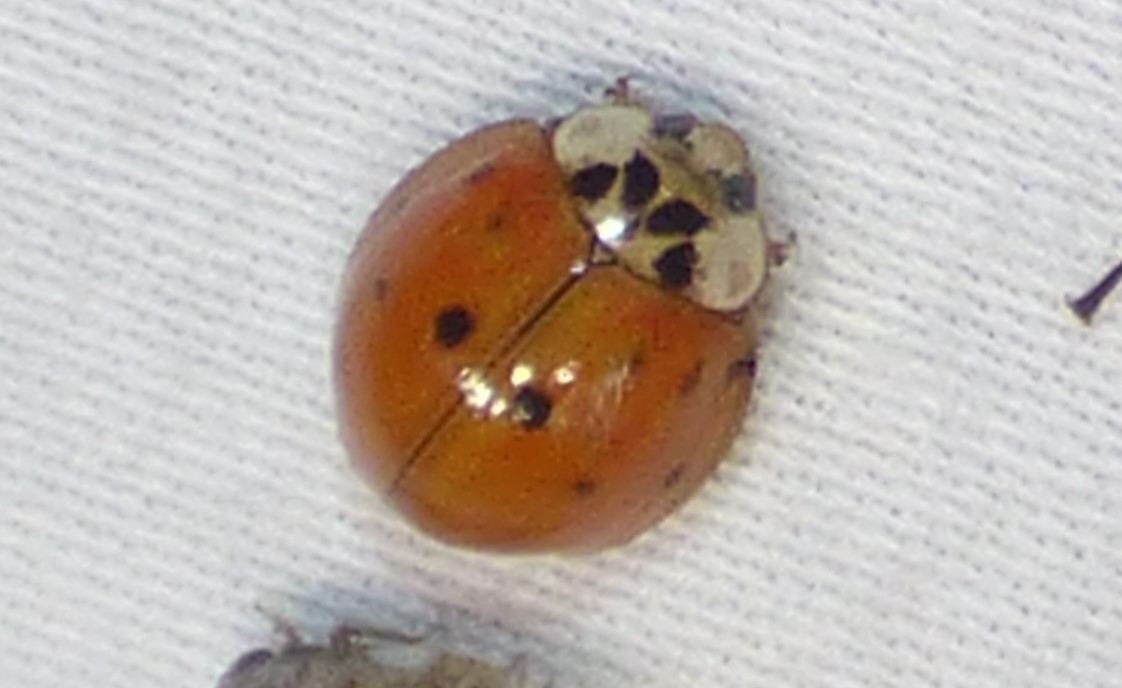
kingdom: Animalia
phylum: Arthropoda
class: Insecta
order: Coleoptera
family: Coccinellidae
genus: Harmonia
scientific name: Harmonia axyridis
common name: Harlequin ladybird
